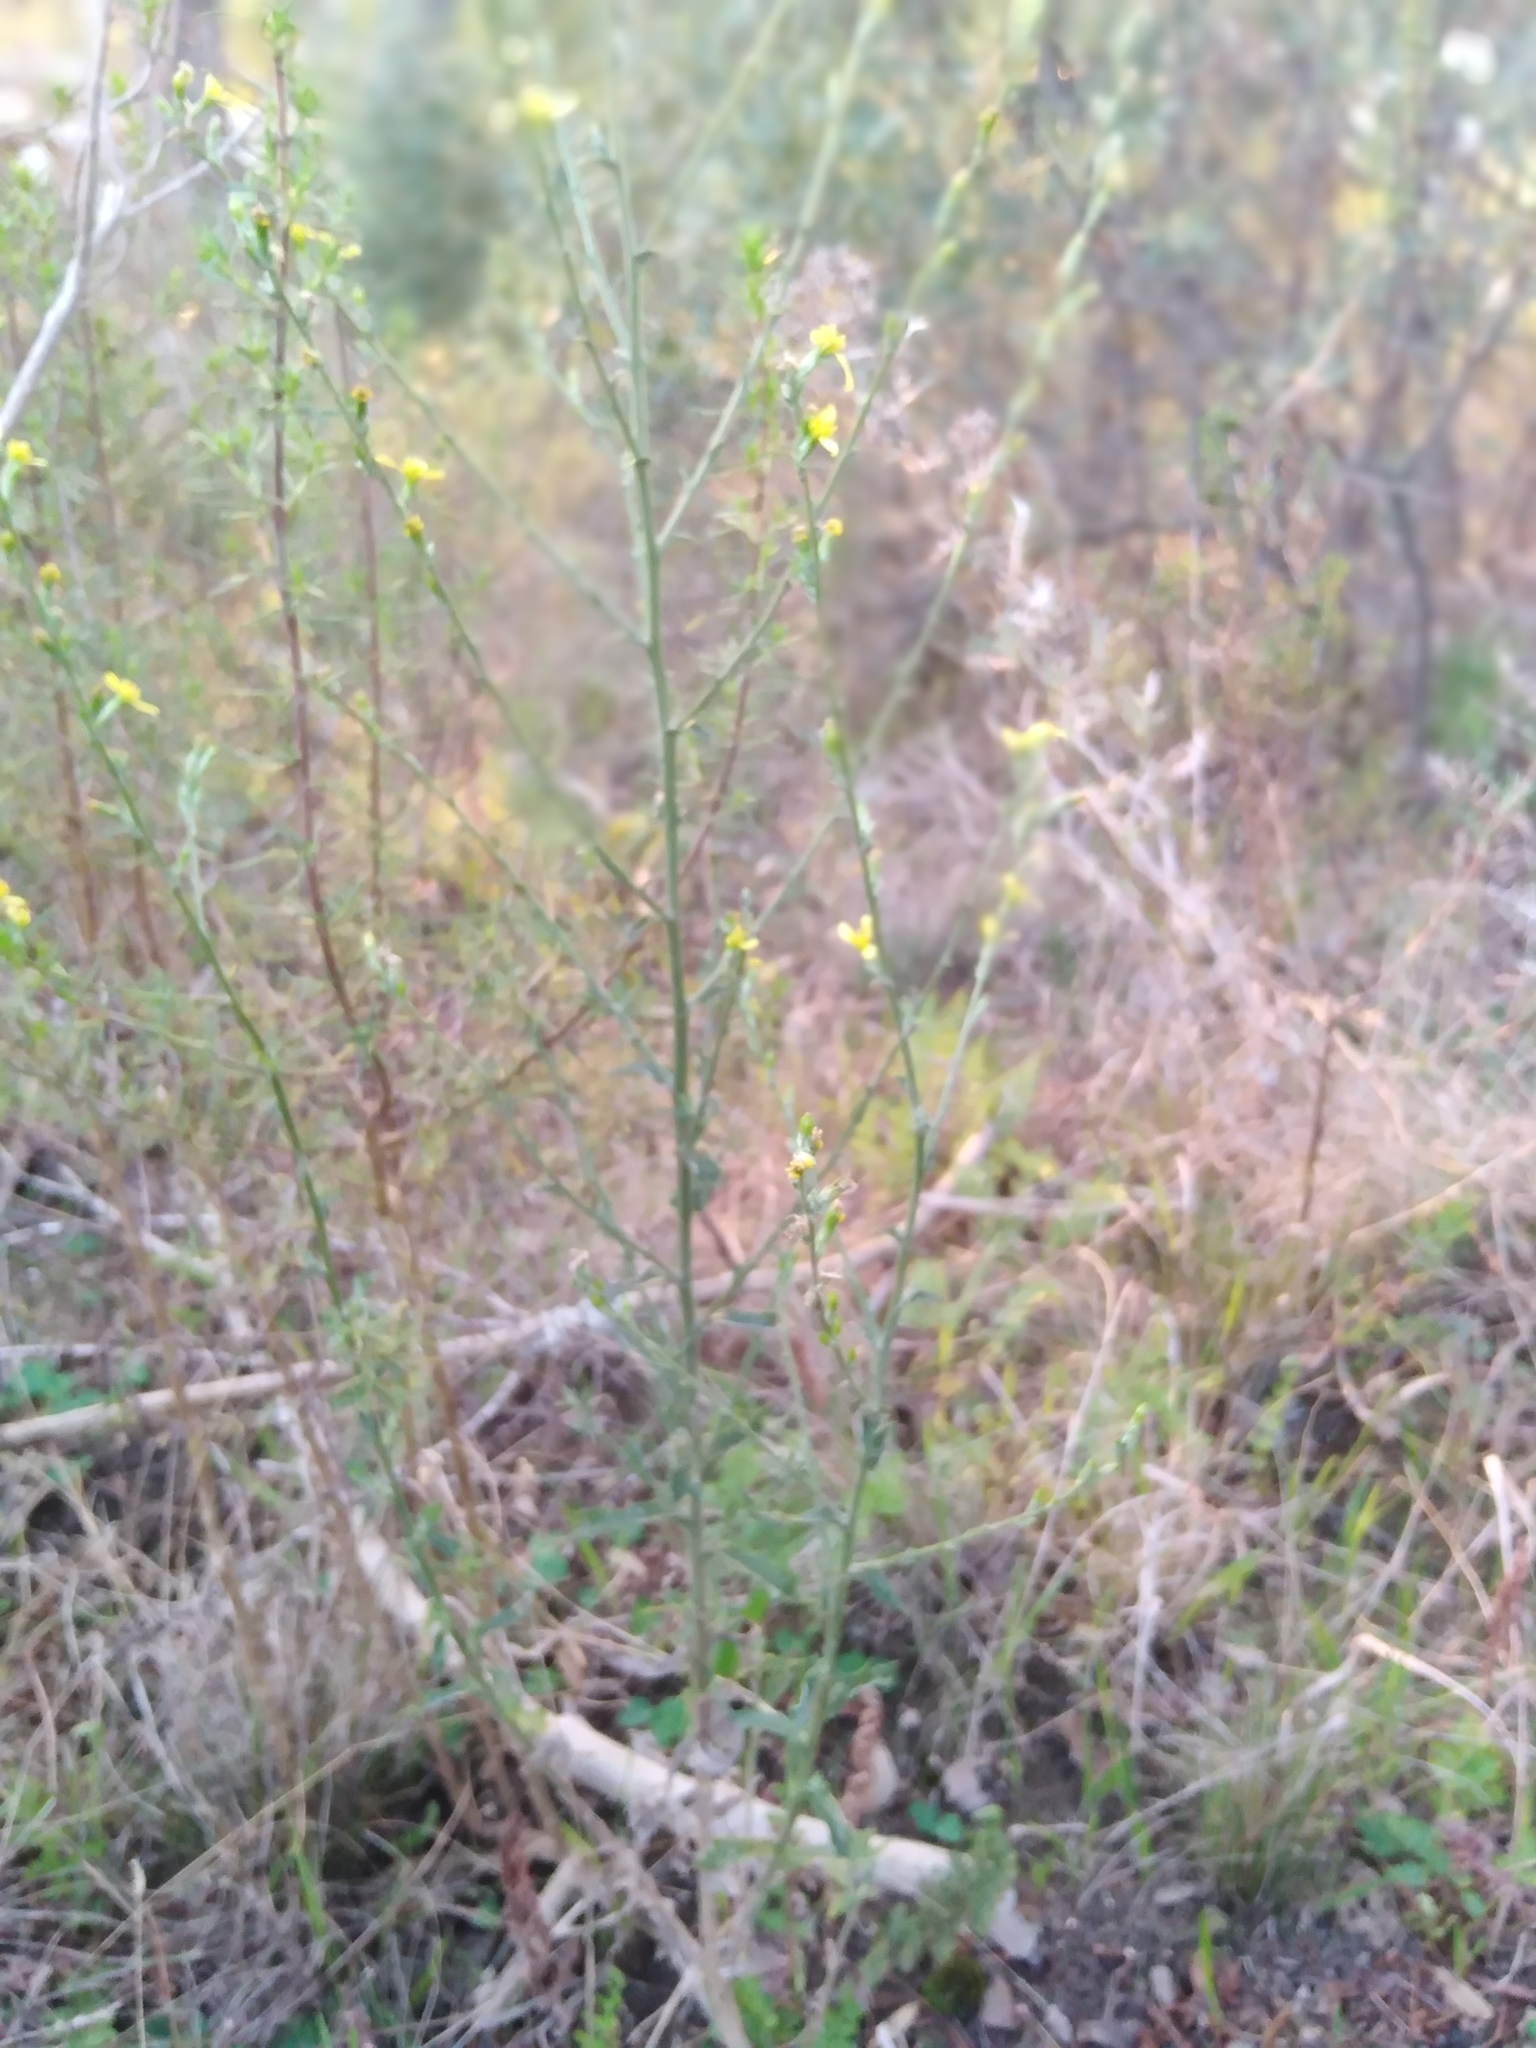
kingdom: Plantae
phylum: Tracheophyta
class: Magnoliopsida
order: Asterales
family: Asteraceae
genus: Senecio
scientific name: Senecio pubigerus
